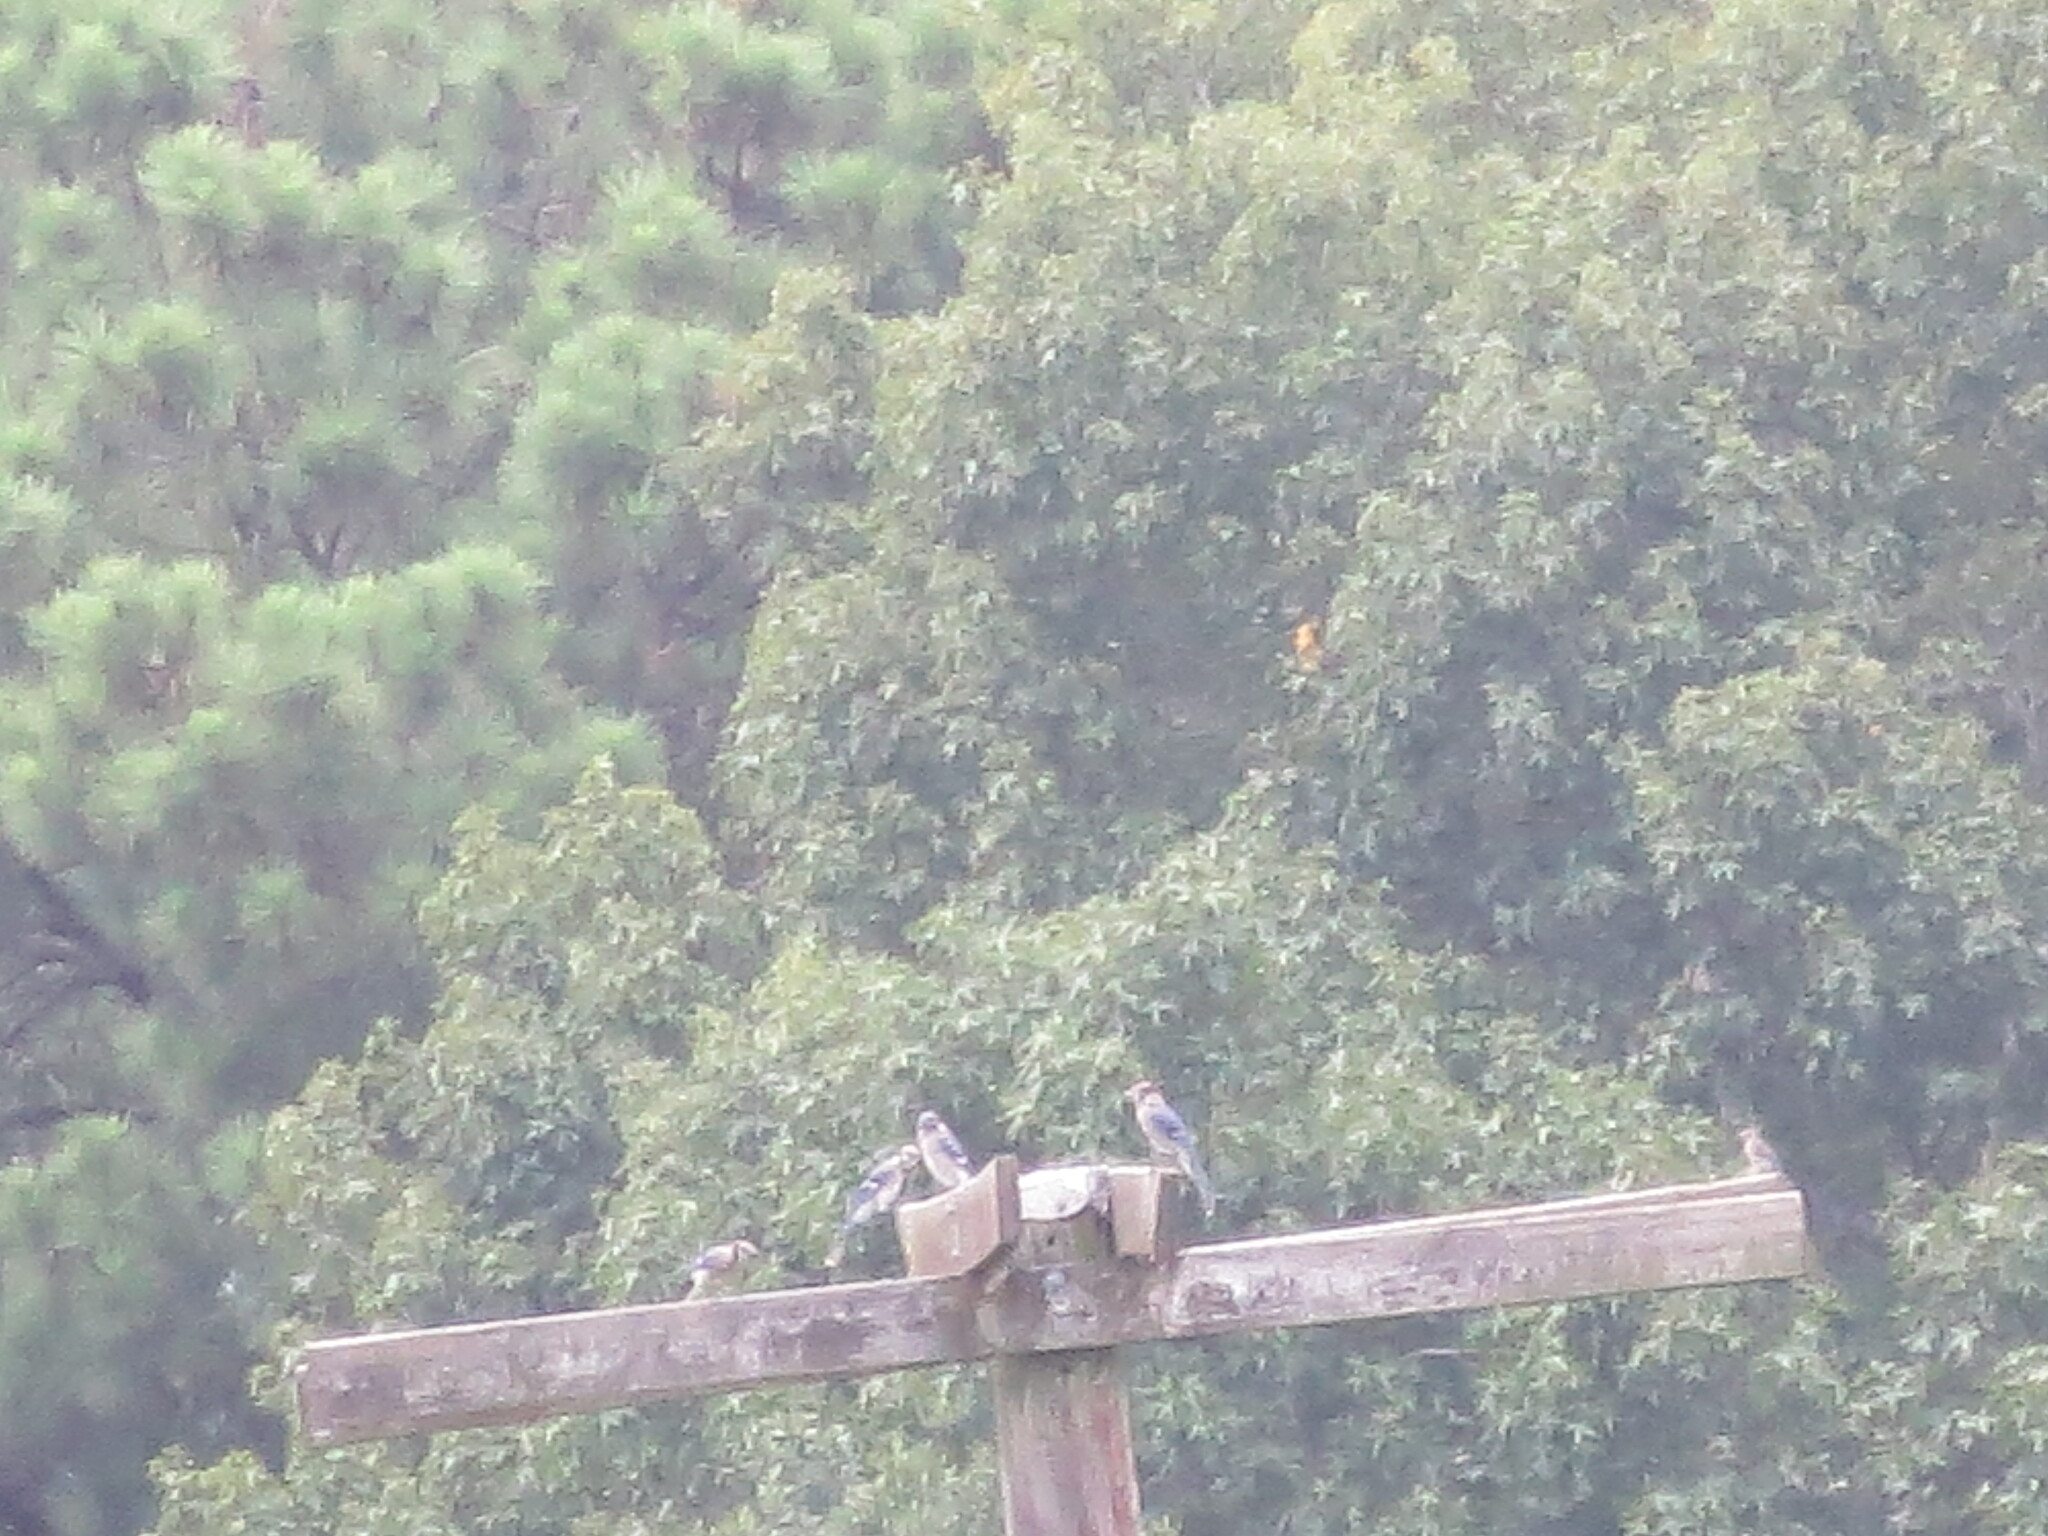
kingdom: Animalia
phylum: Chordata
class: Aves
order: Passeriformes
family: Corvidae
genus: Cyanocitta
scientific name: Cyanocitta cristata
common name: Blue jay
